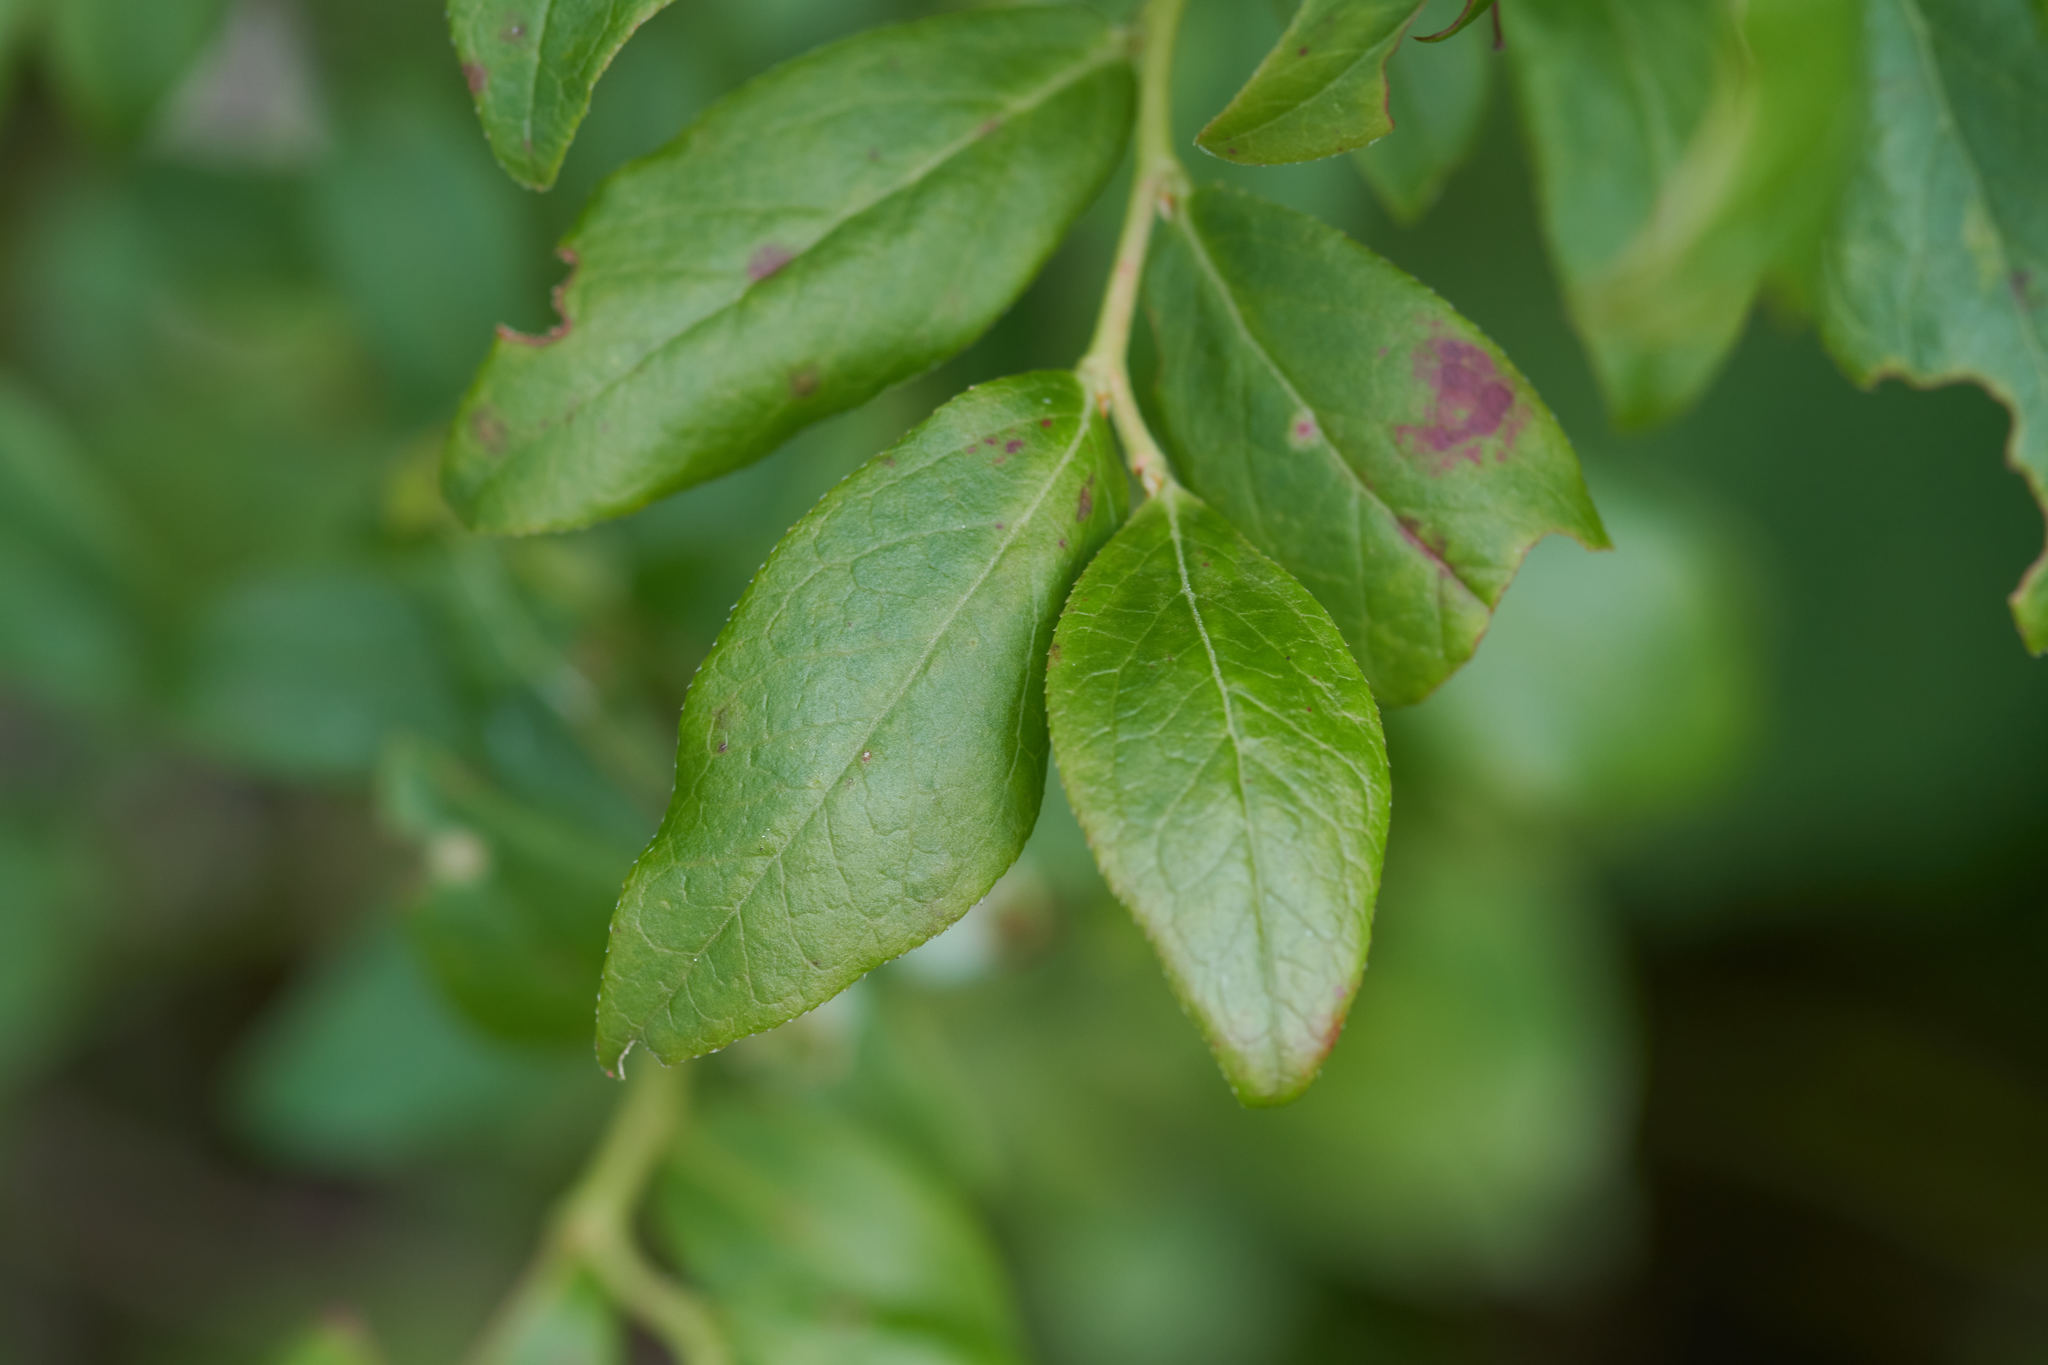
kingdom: Plantae
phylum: Tracheophyta
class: Magnoliopsida
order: Ericales
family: Ericaceae
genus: Vaccinium
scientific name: Vaccinium angustifolium
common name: Early lowbush blueberry
